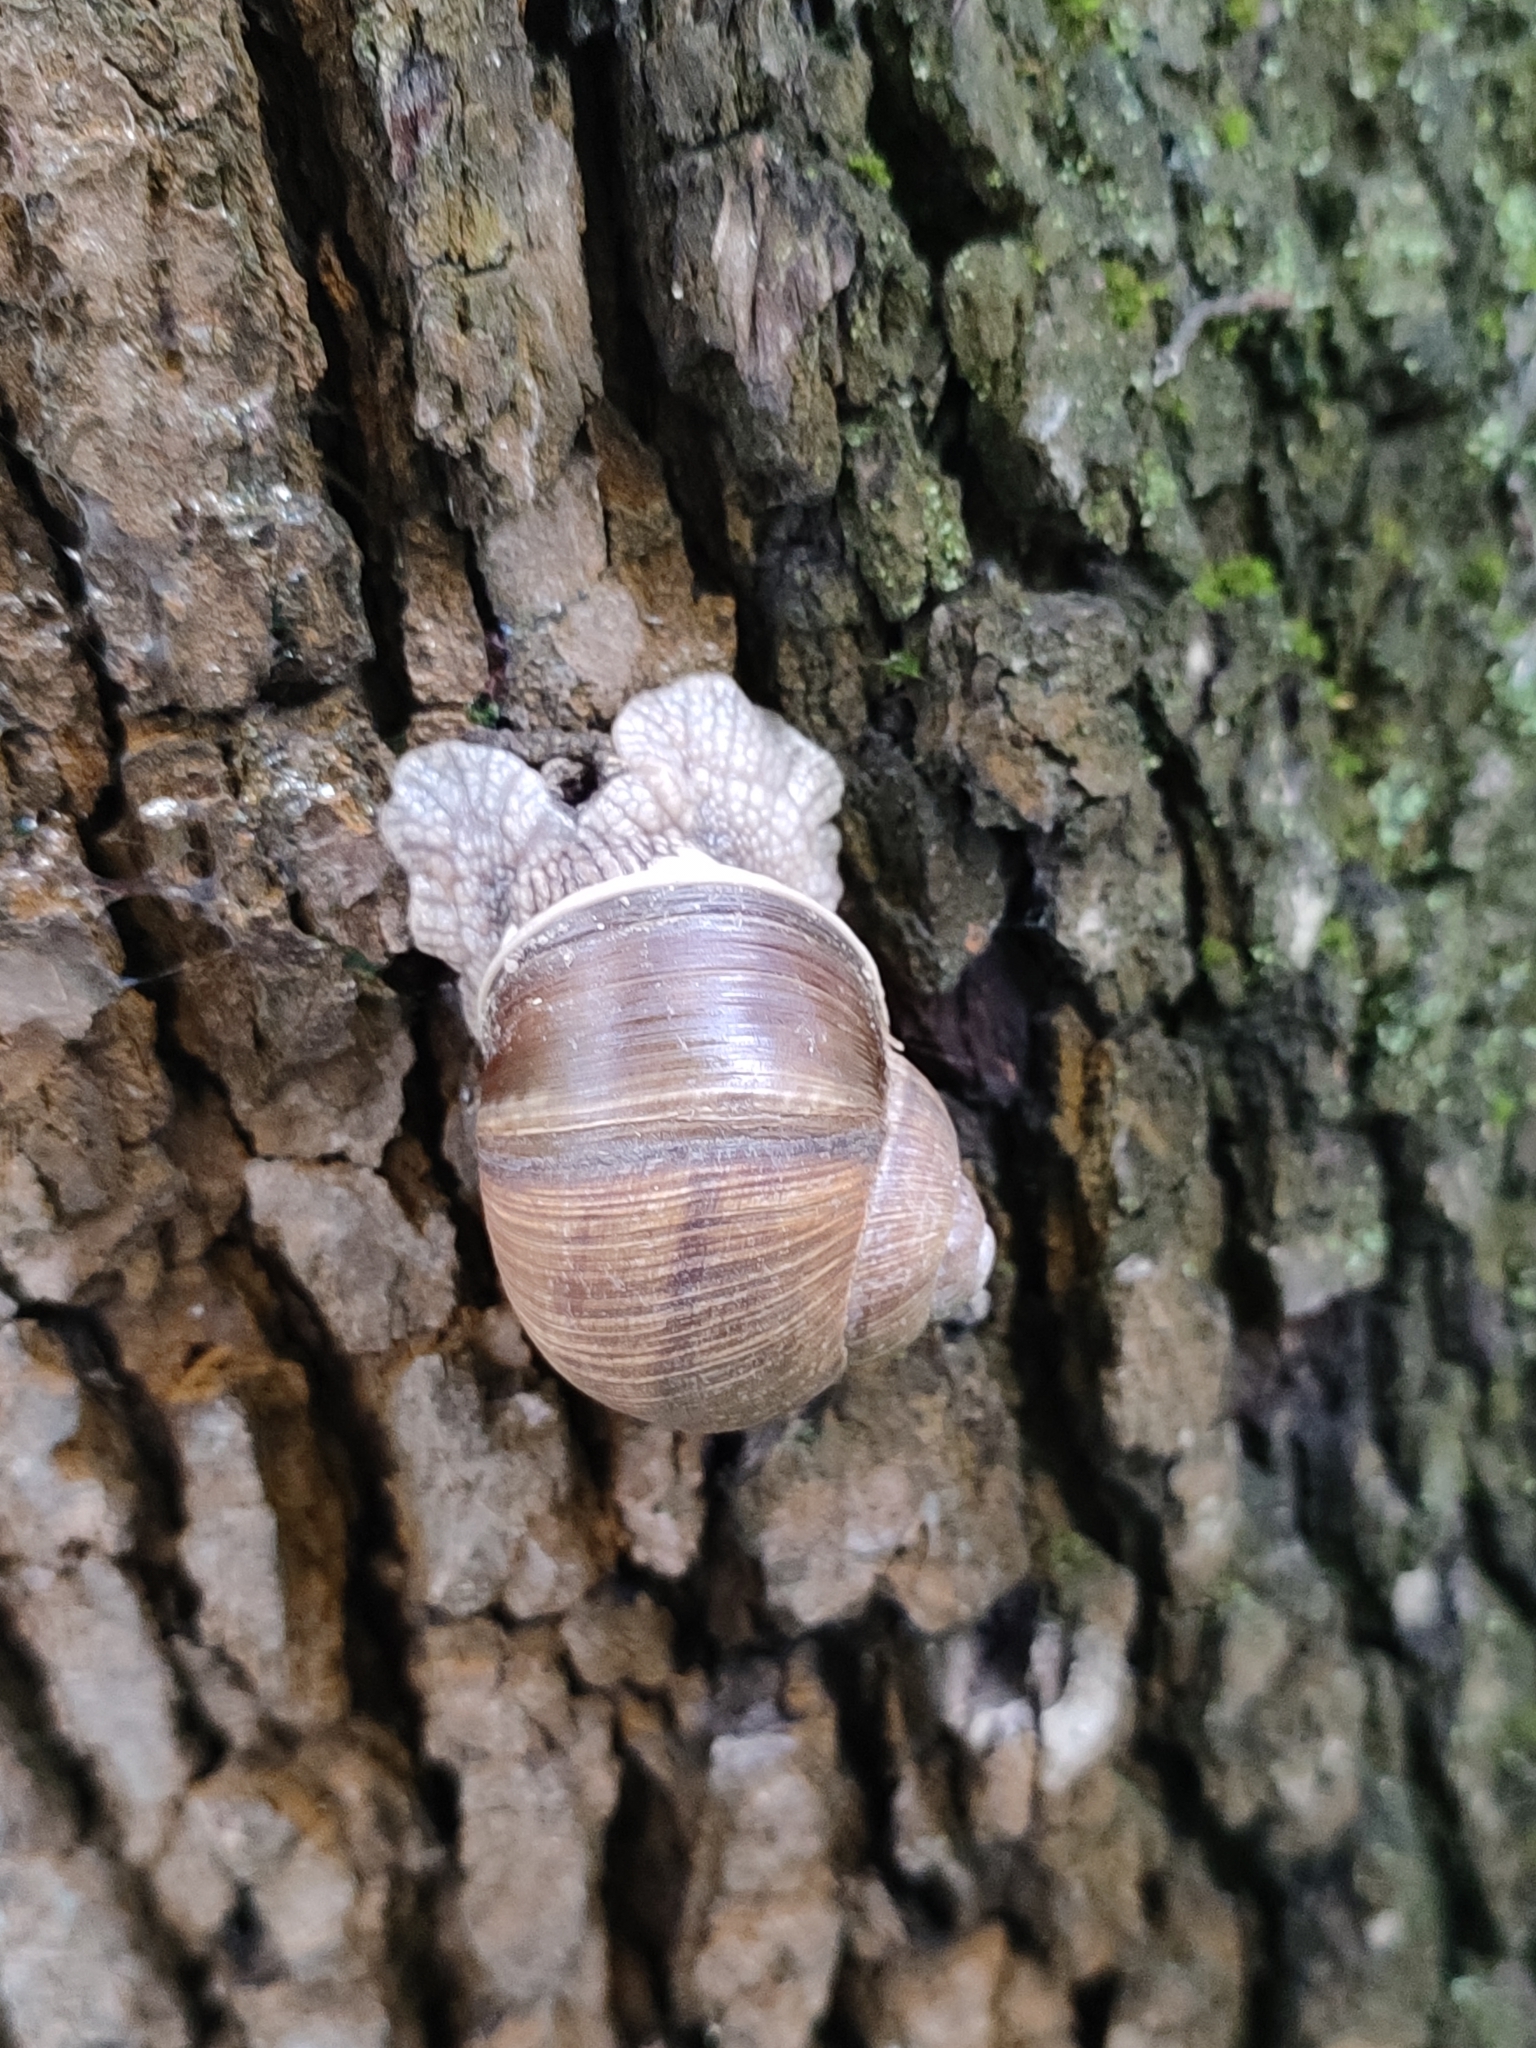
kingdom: Animalia
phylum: Mollusca
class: Gastropoda
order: Stylommatophora
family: Helicidae
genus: Helix
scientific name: Helix pomatia
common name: Roman snail
